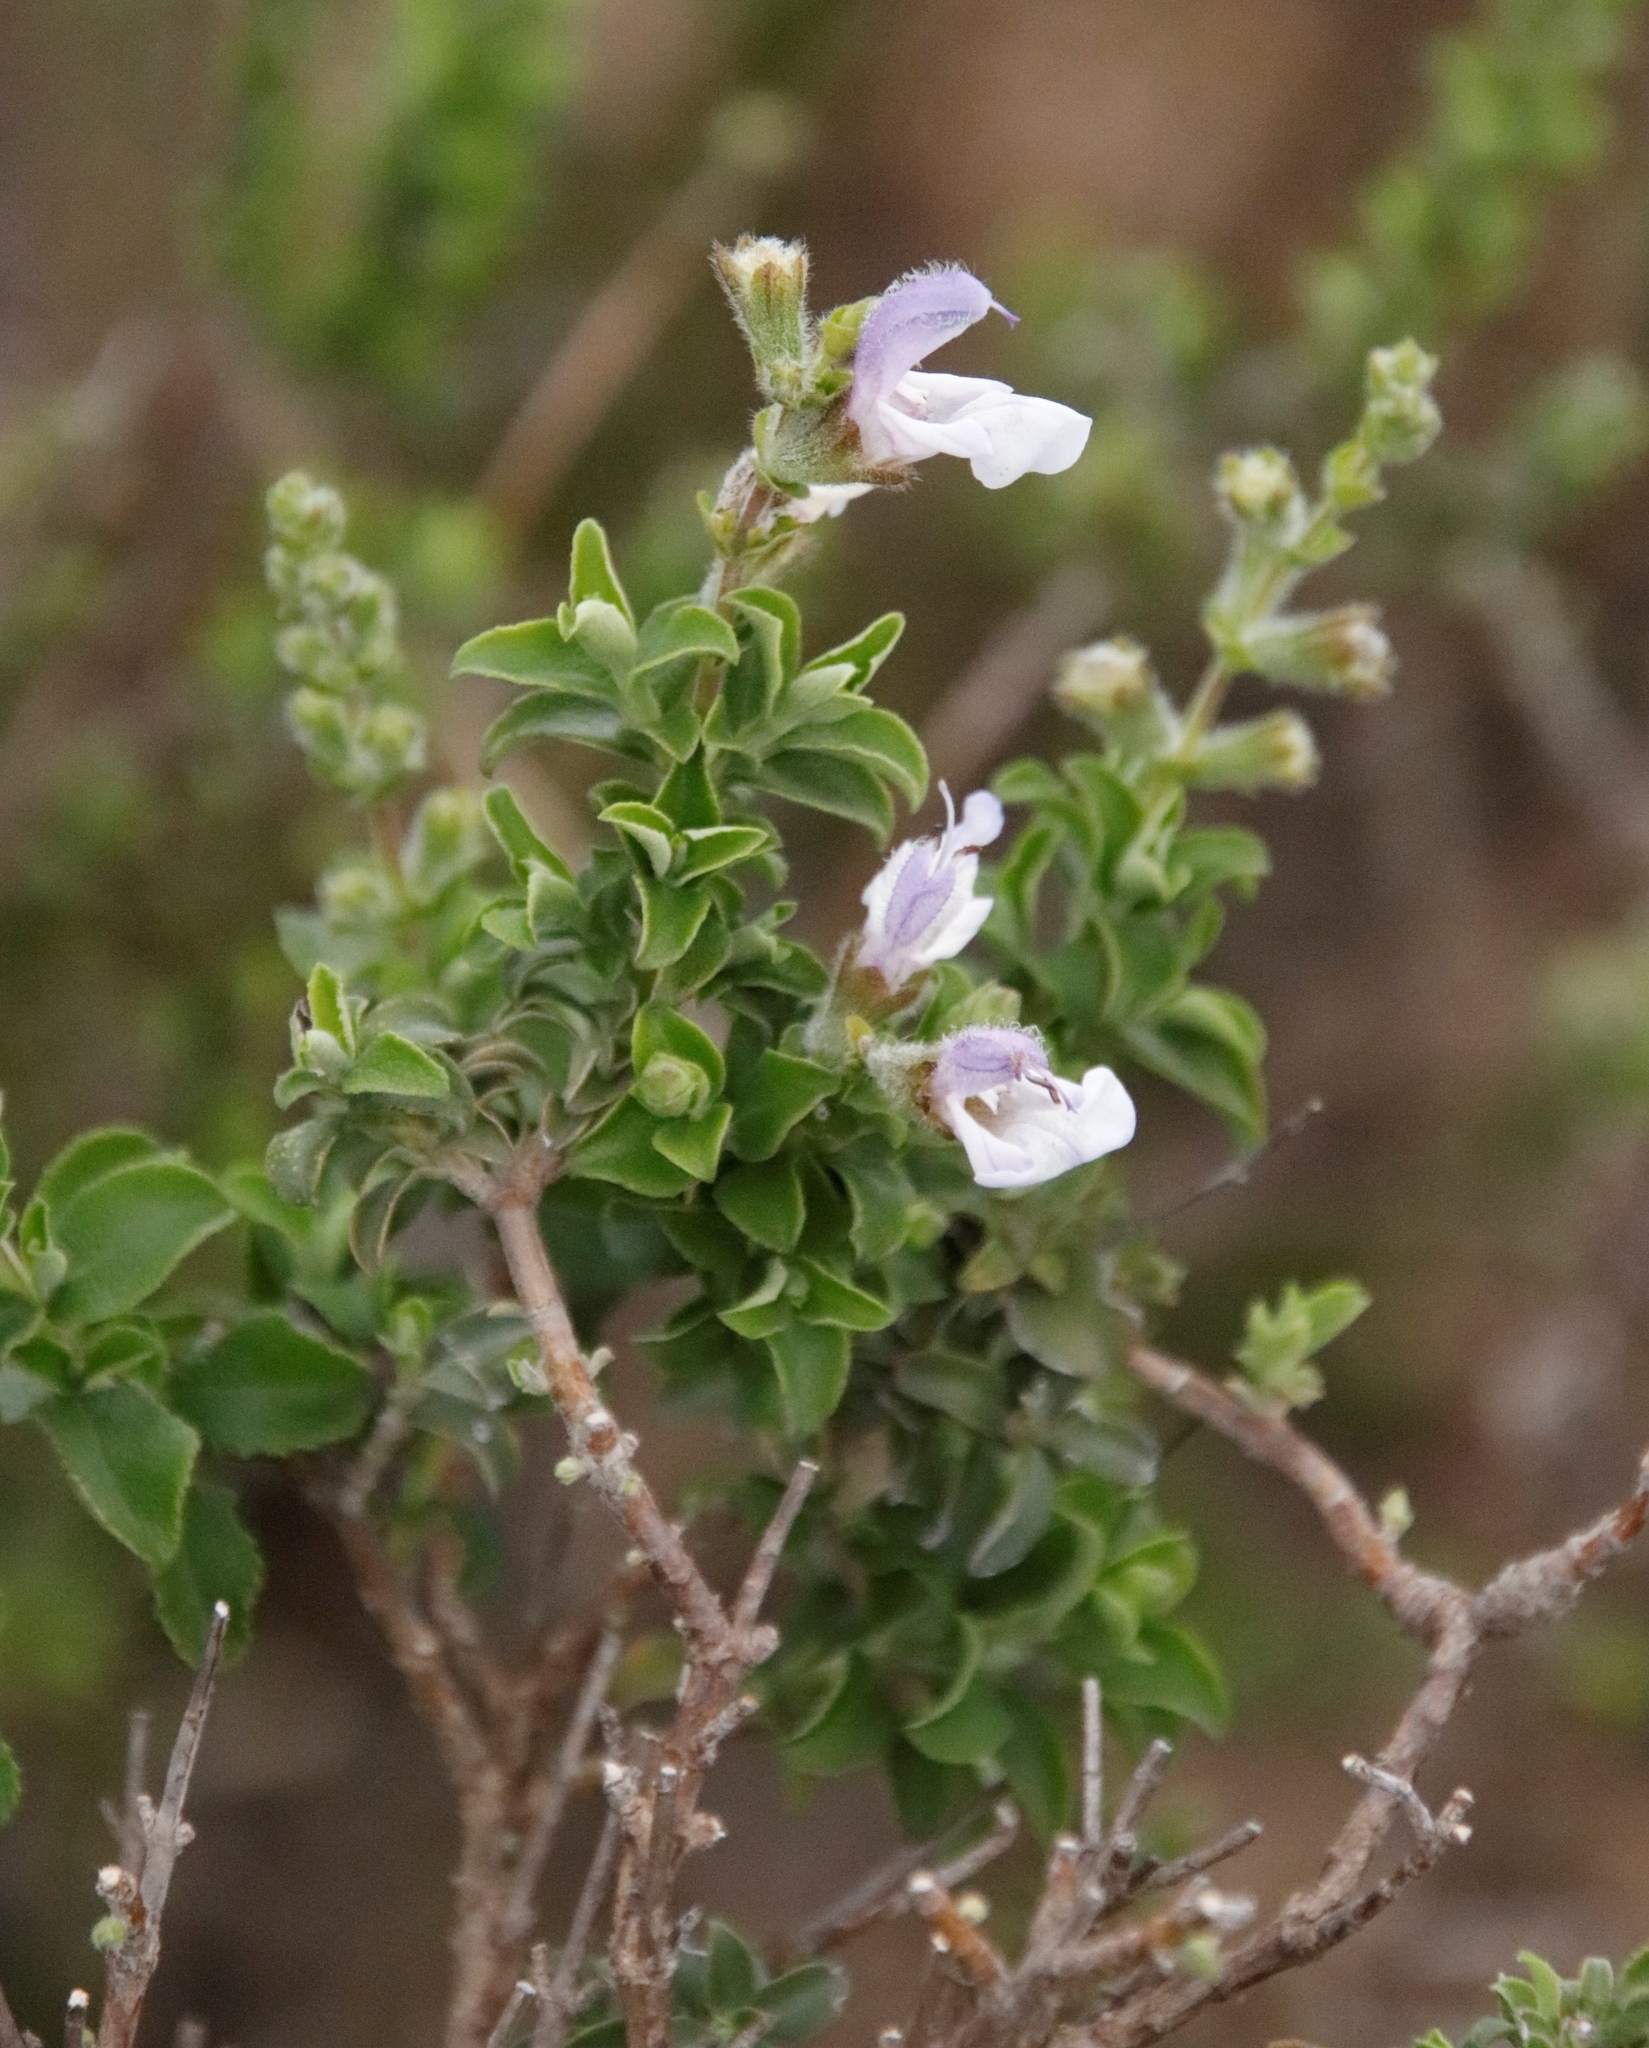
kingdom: Plantae
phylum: Tracheophyta
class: Magnoliopsida
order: Lamiales
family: Lamiaceae
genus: Salvia
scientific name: Salvia africana
